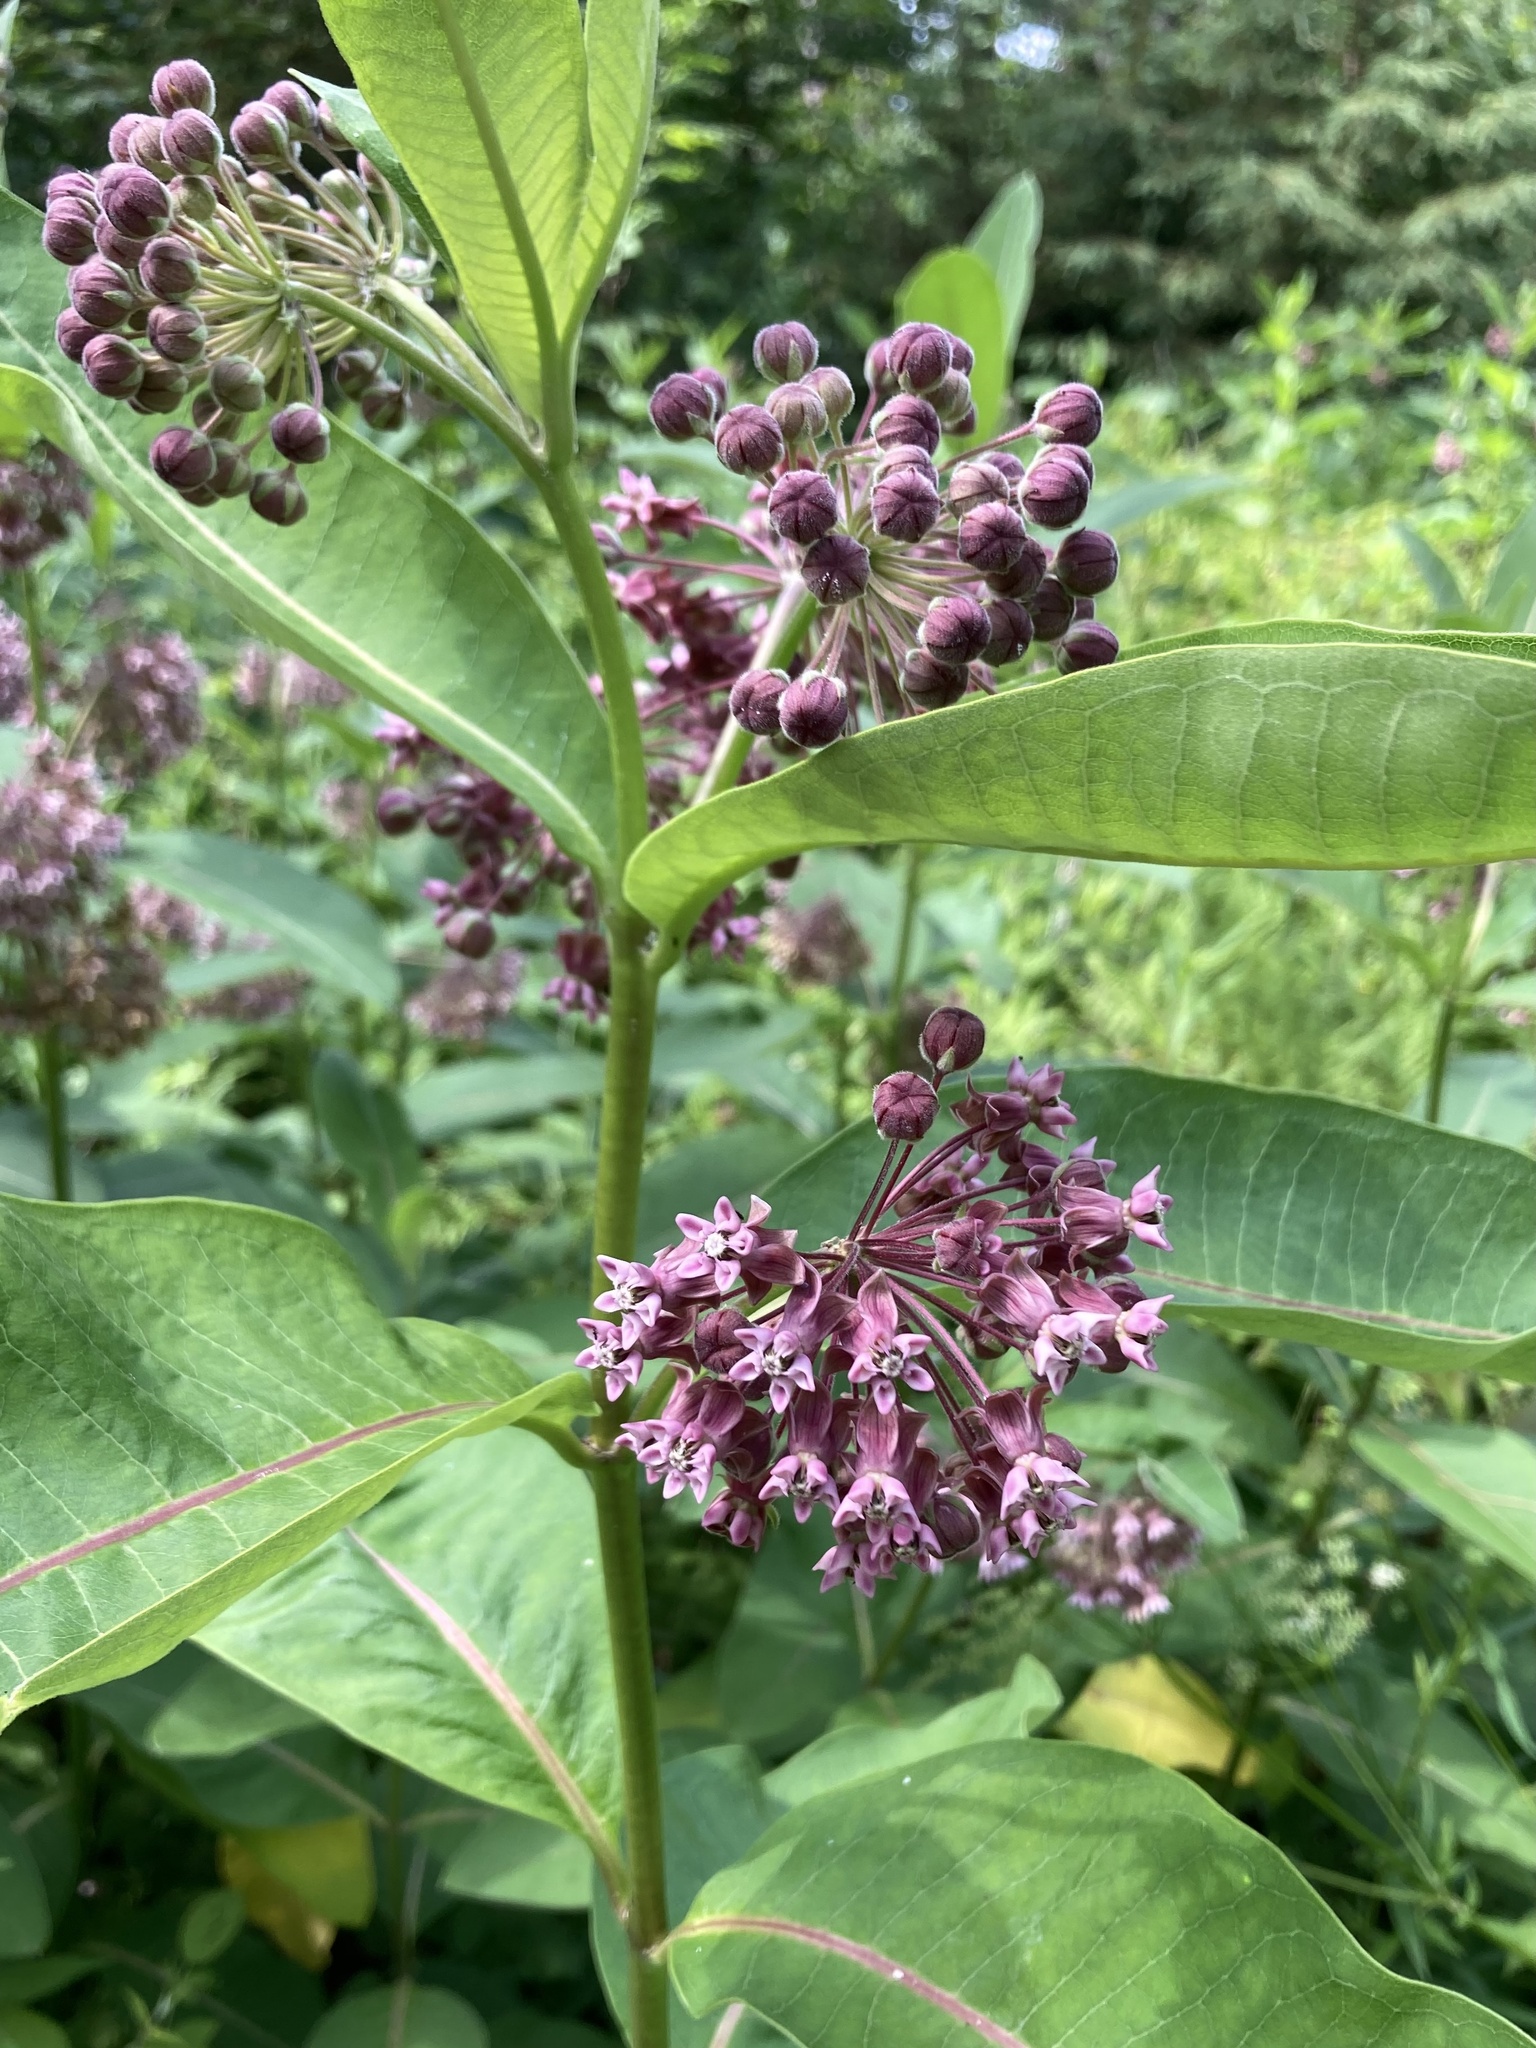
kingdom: Plantae
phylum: Tracheophyta
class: Magnoliopsida
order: Gentianales
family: Apocynaceae
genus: Asclepias
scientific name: Asclepias syriaca
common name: Common milkweed
